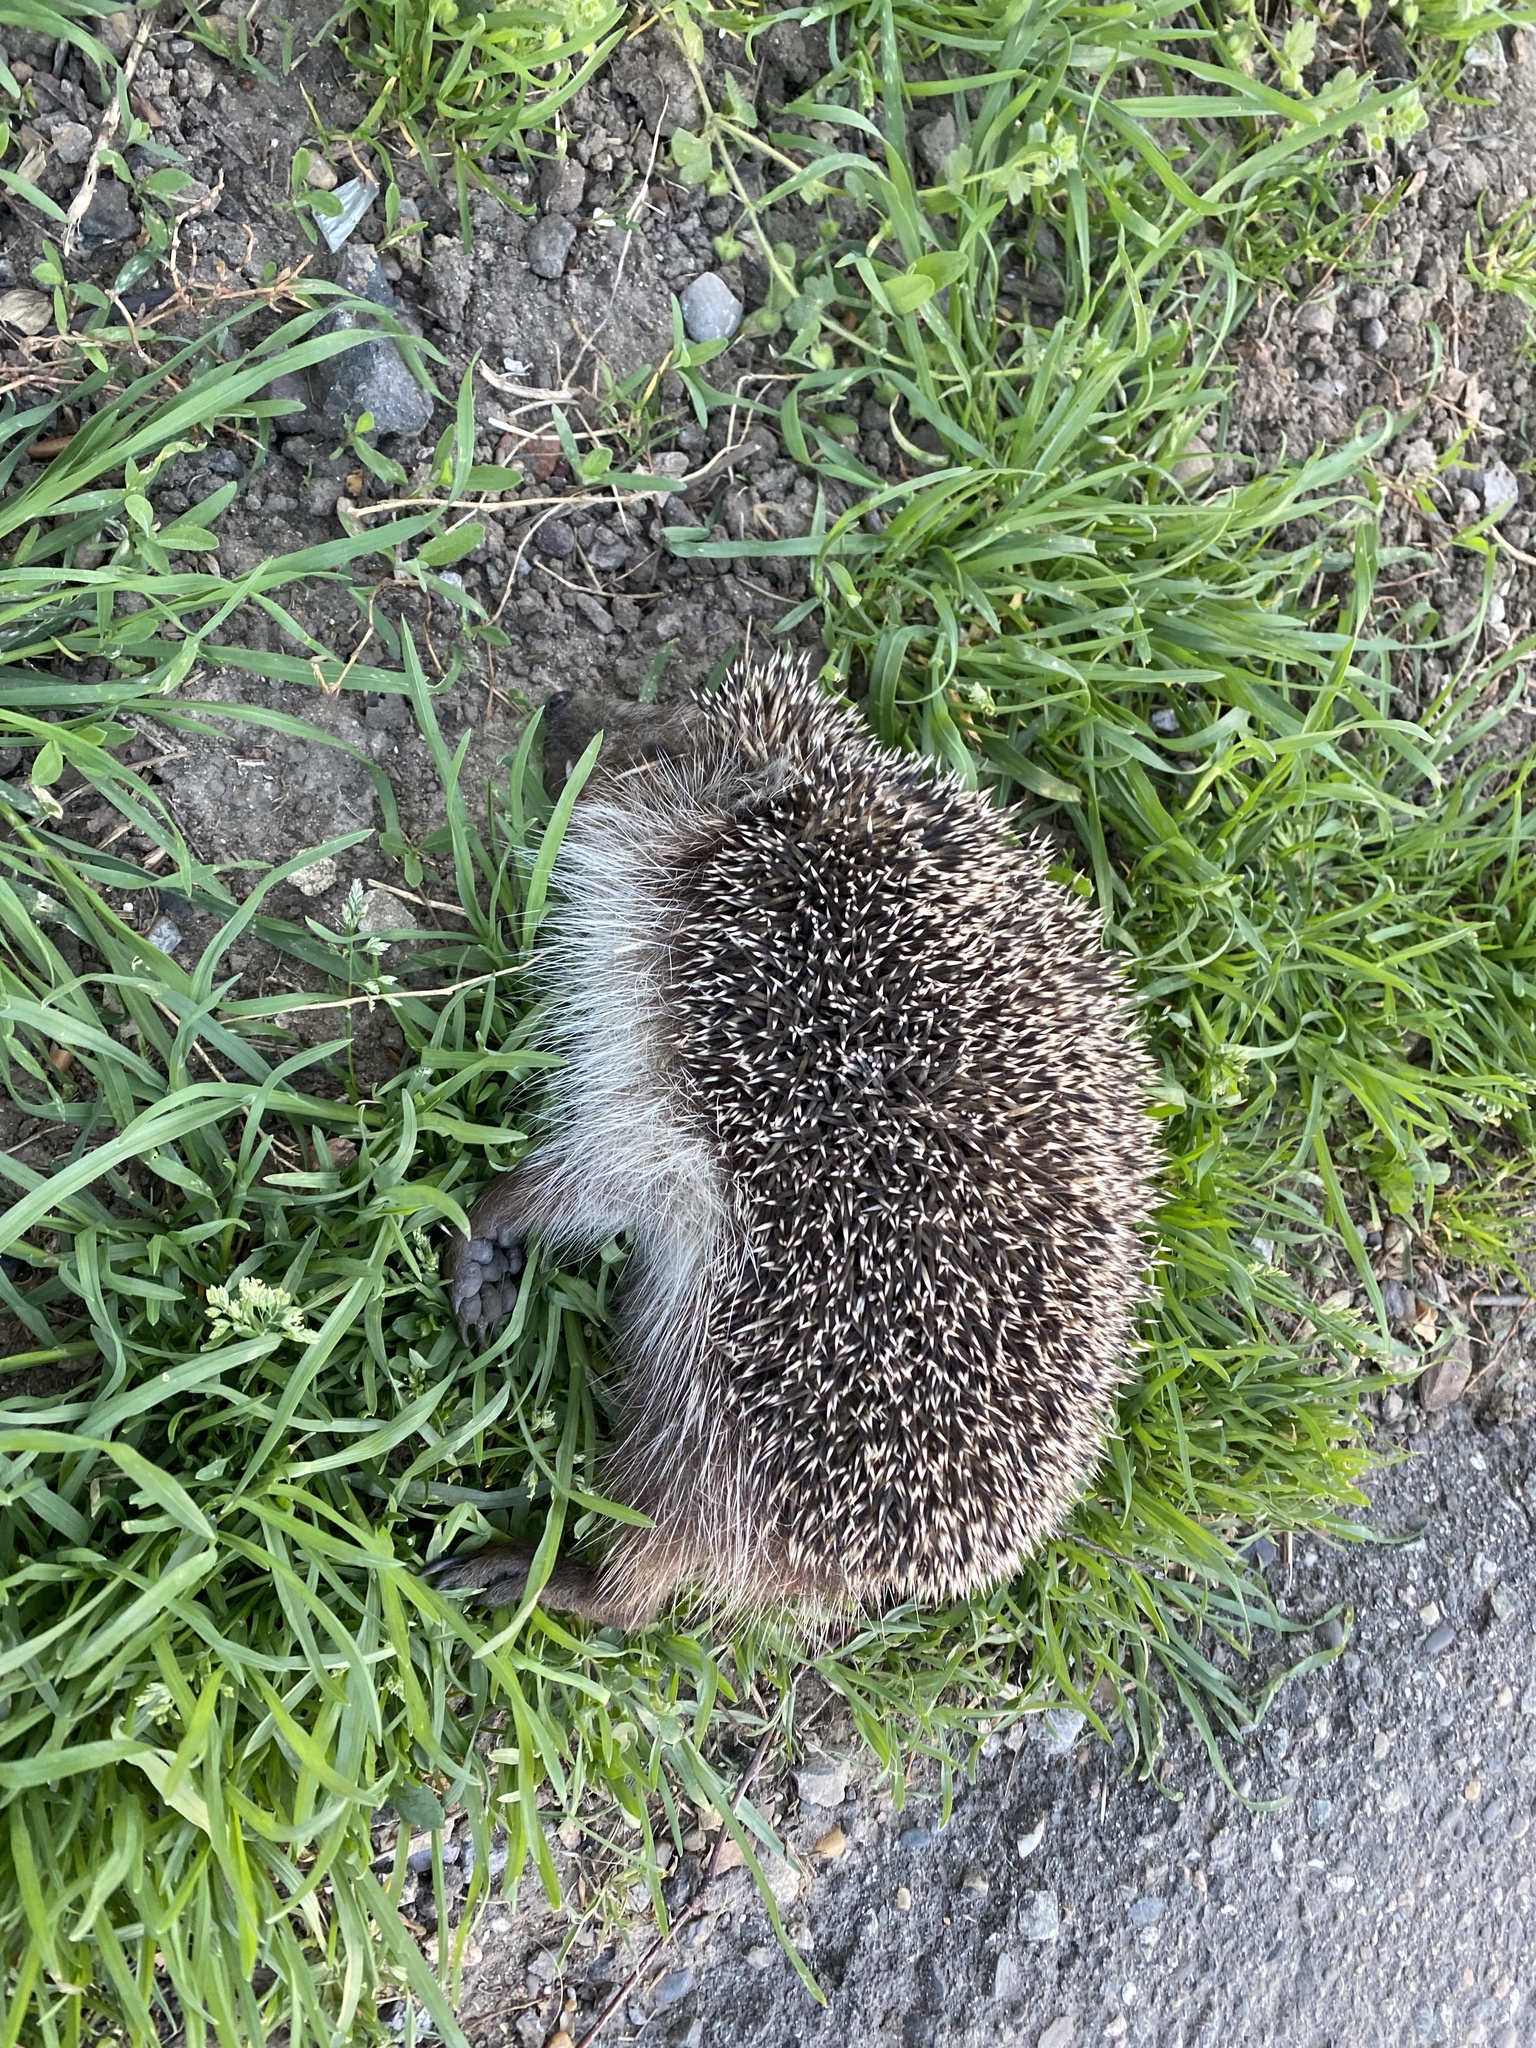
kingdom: Animalia
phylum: Chordata
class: Mammalia
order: Erinaceomorpha
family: Erinaceidae
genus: Erinaceus
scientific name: Erinaceus roumanicus
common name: Northern white-breasted hedgehog
